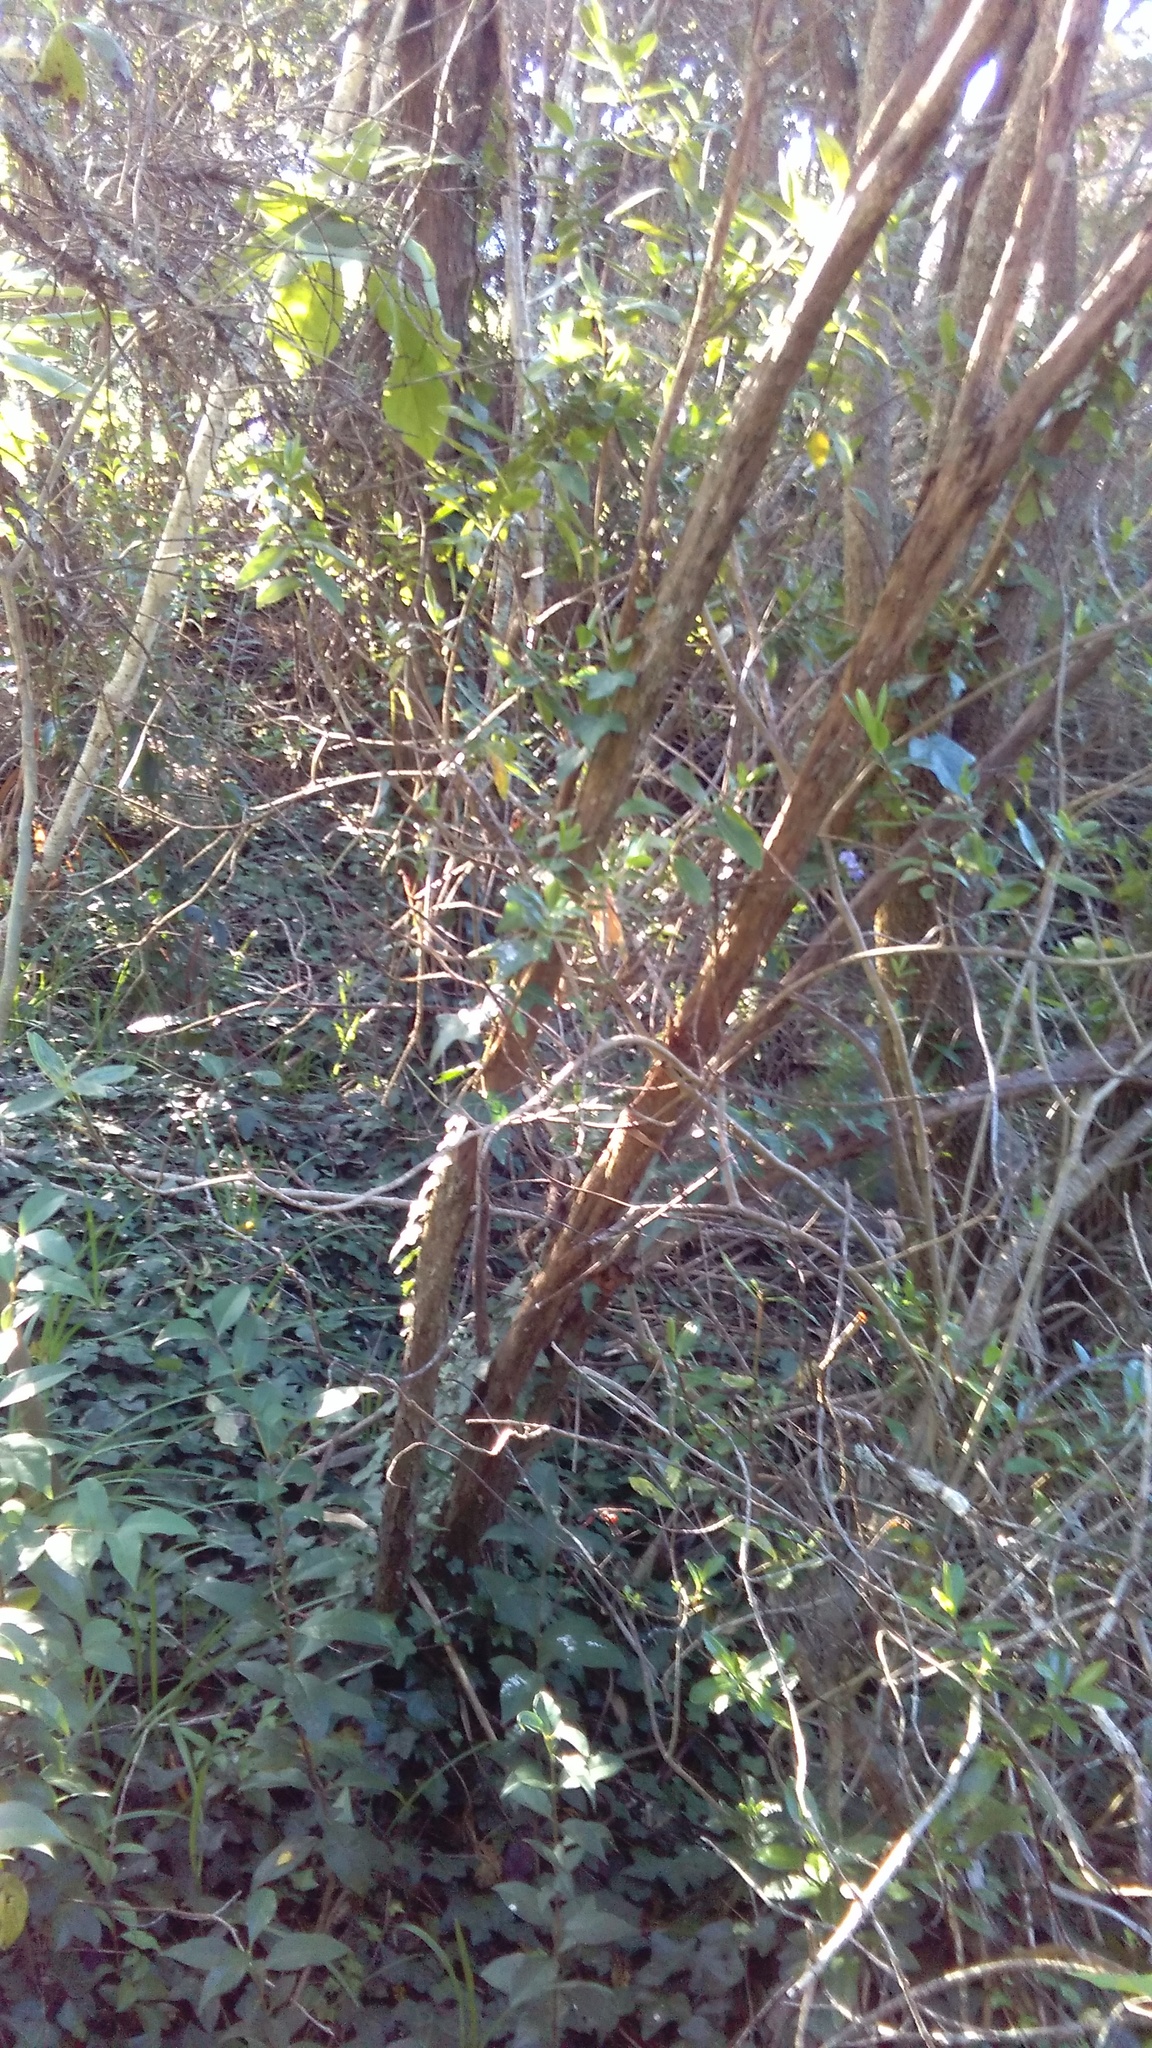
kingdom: Plantae
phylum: Tracheophyta
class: Magnoliopsida
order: Apiales
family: Araliaceae
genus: Hedera
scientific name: Hedera helix
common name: Ivy
